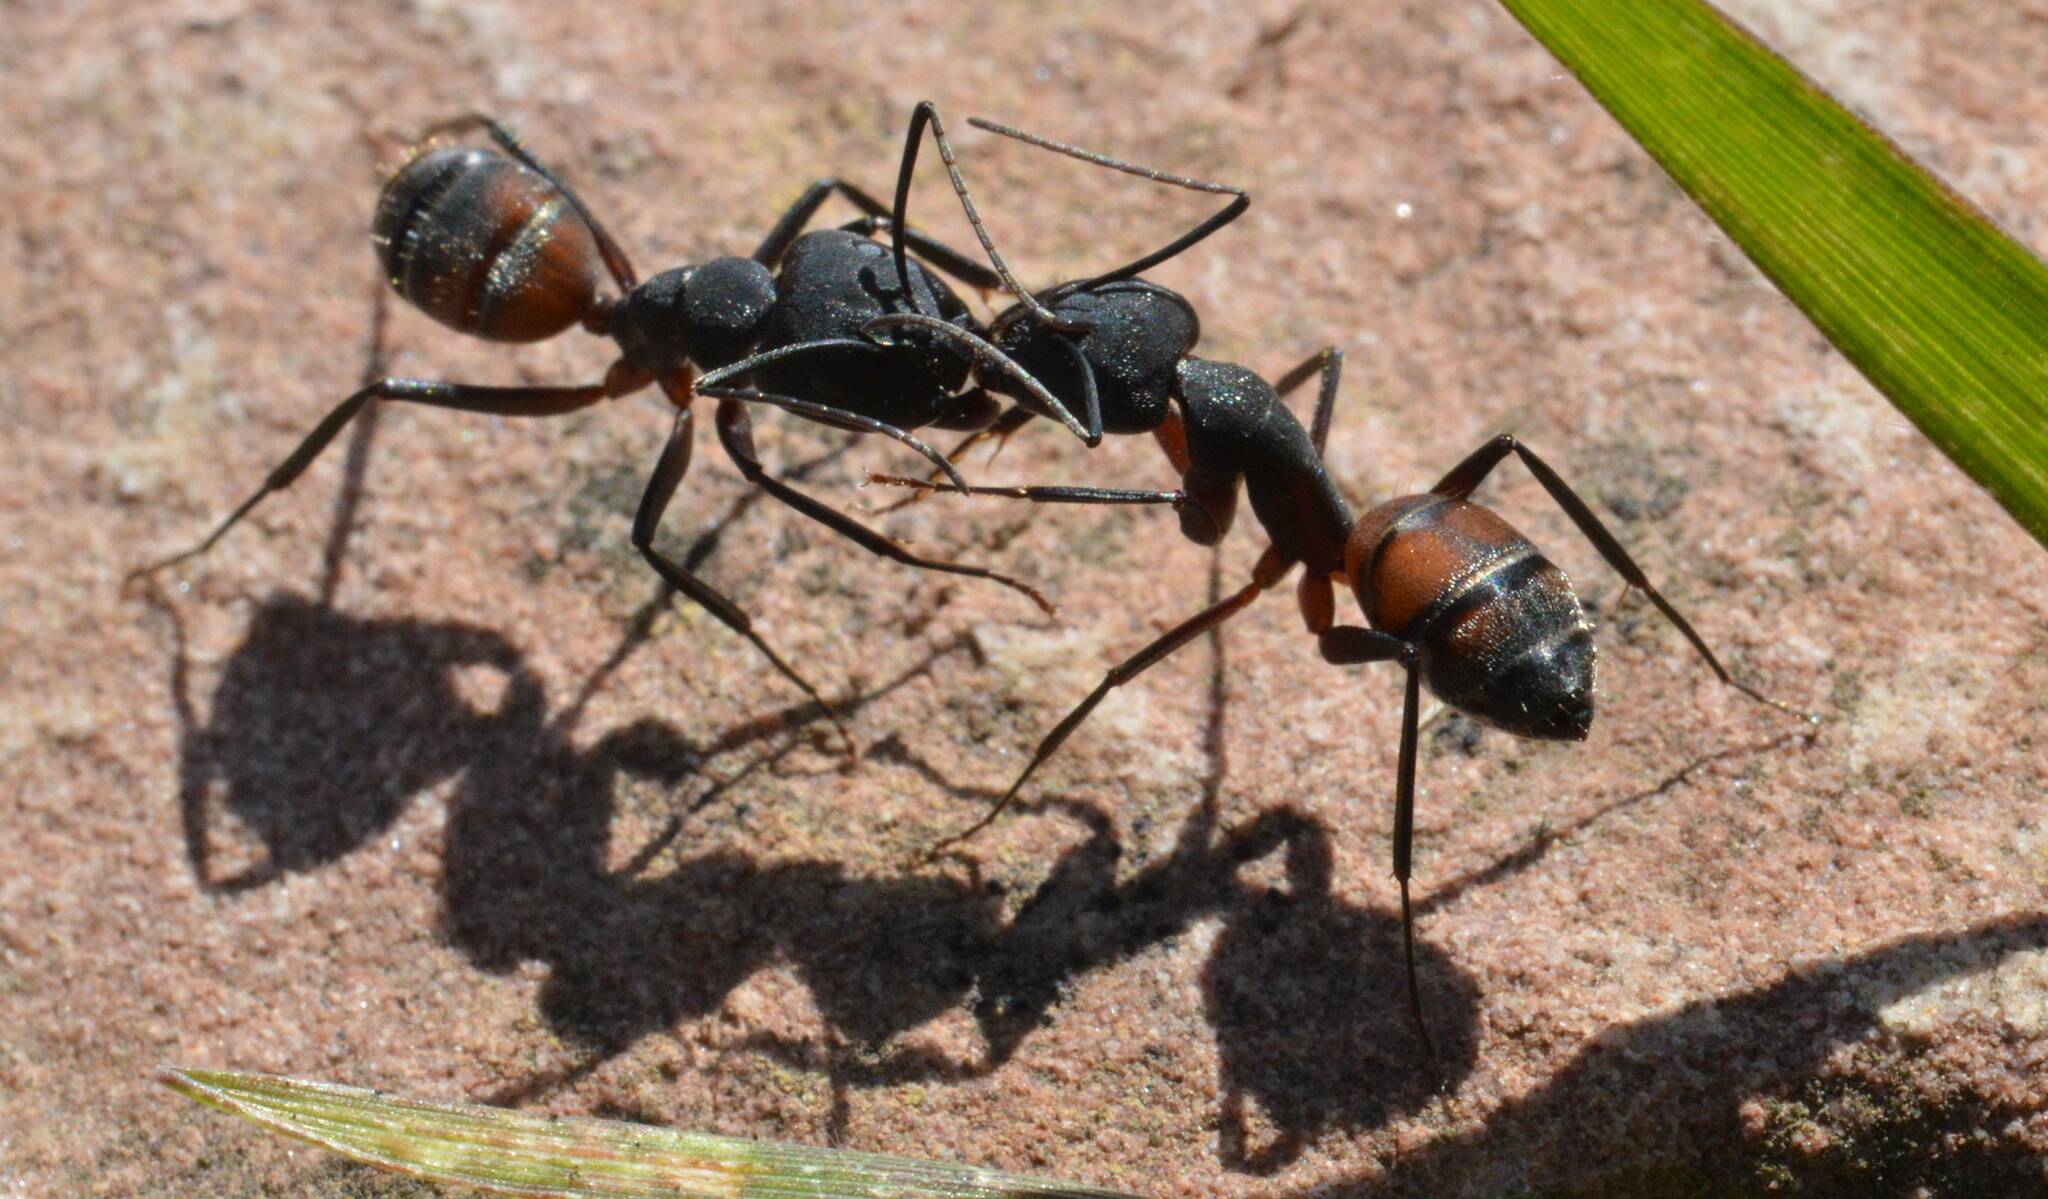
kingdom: Animalia
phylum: Arthropoda
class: Insecta
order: Hymenoptera
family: Formicidae
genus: Camponotus
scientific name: Camponotus cruentatus
